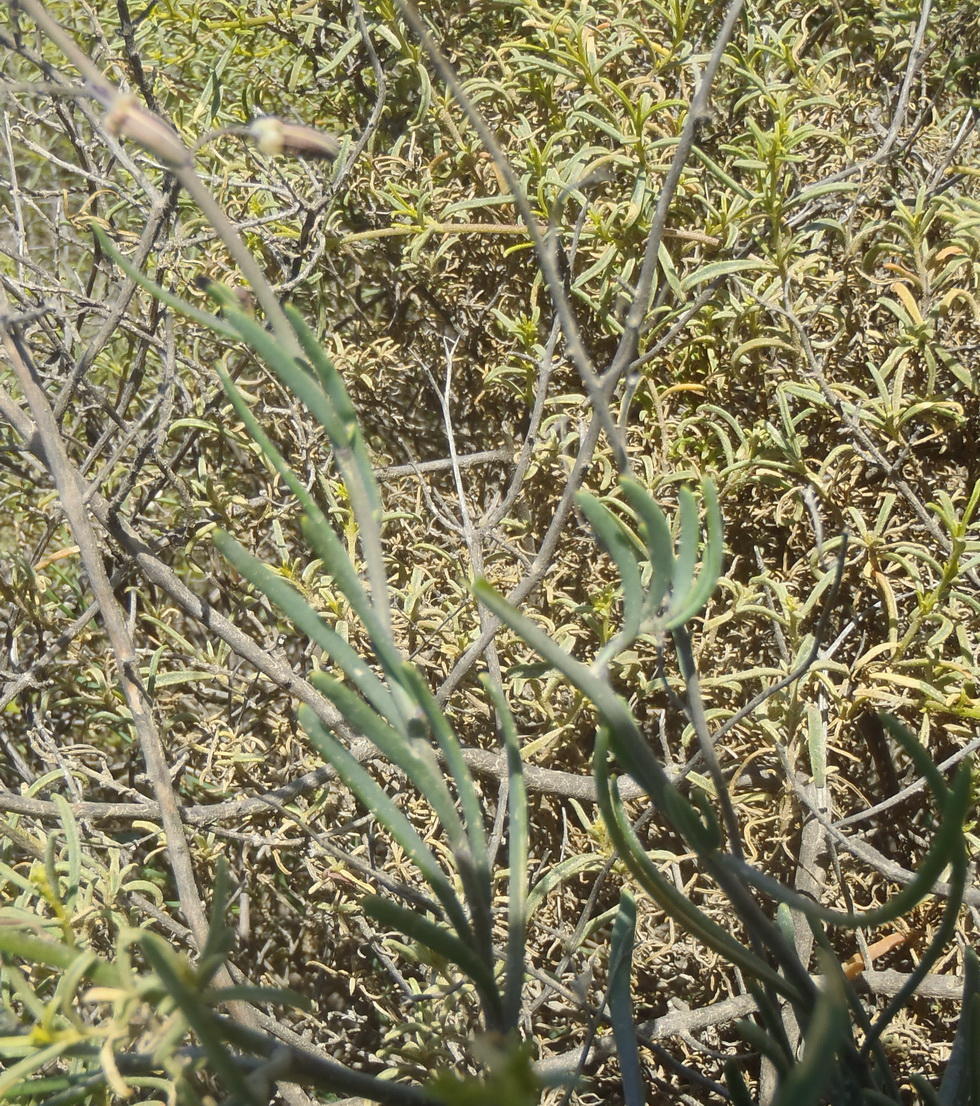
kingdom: Plantae
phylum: Tracheophyta
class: Magnoliopsida
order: Brassicales
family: Brassicaceae
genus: Heliophila
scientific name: Heliophila cornuta
